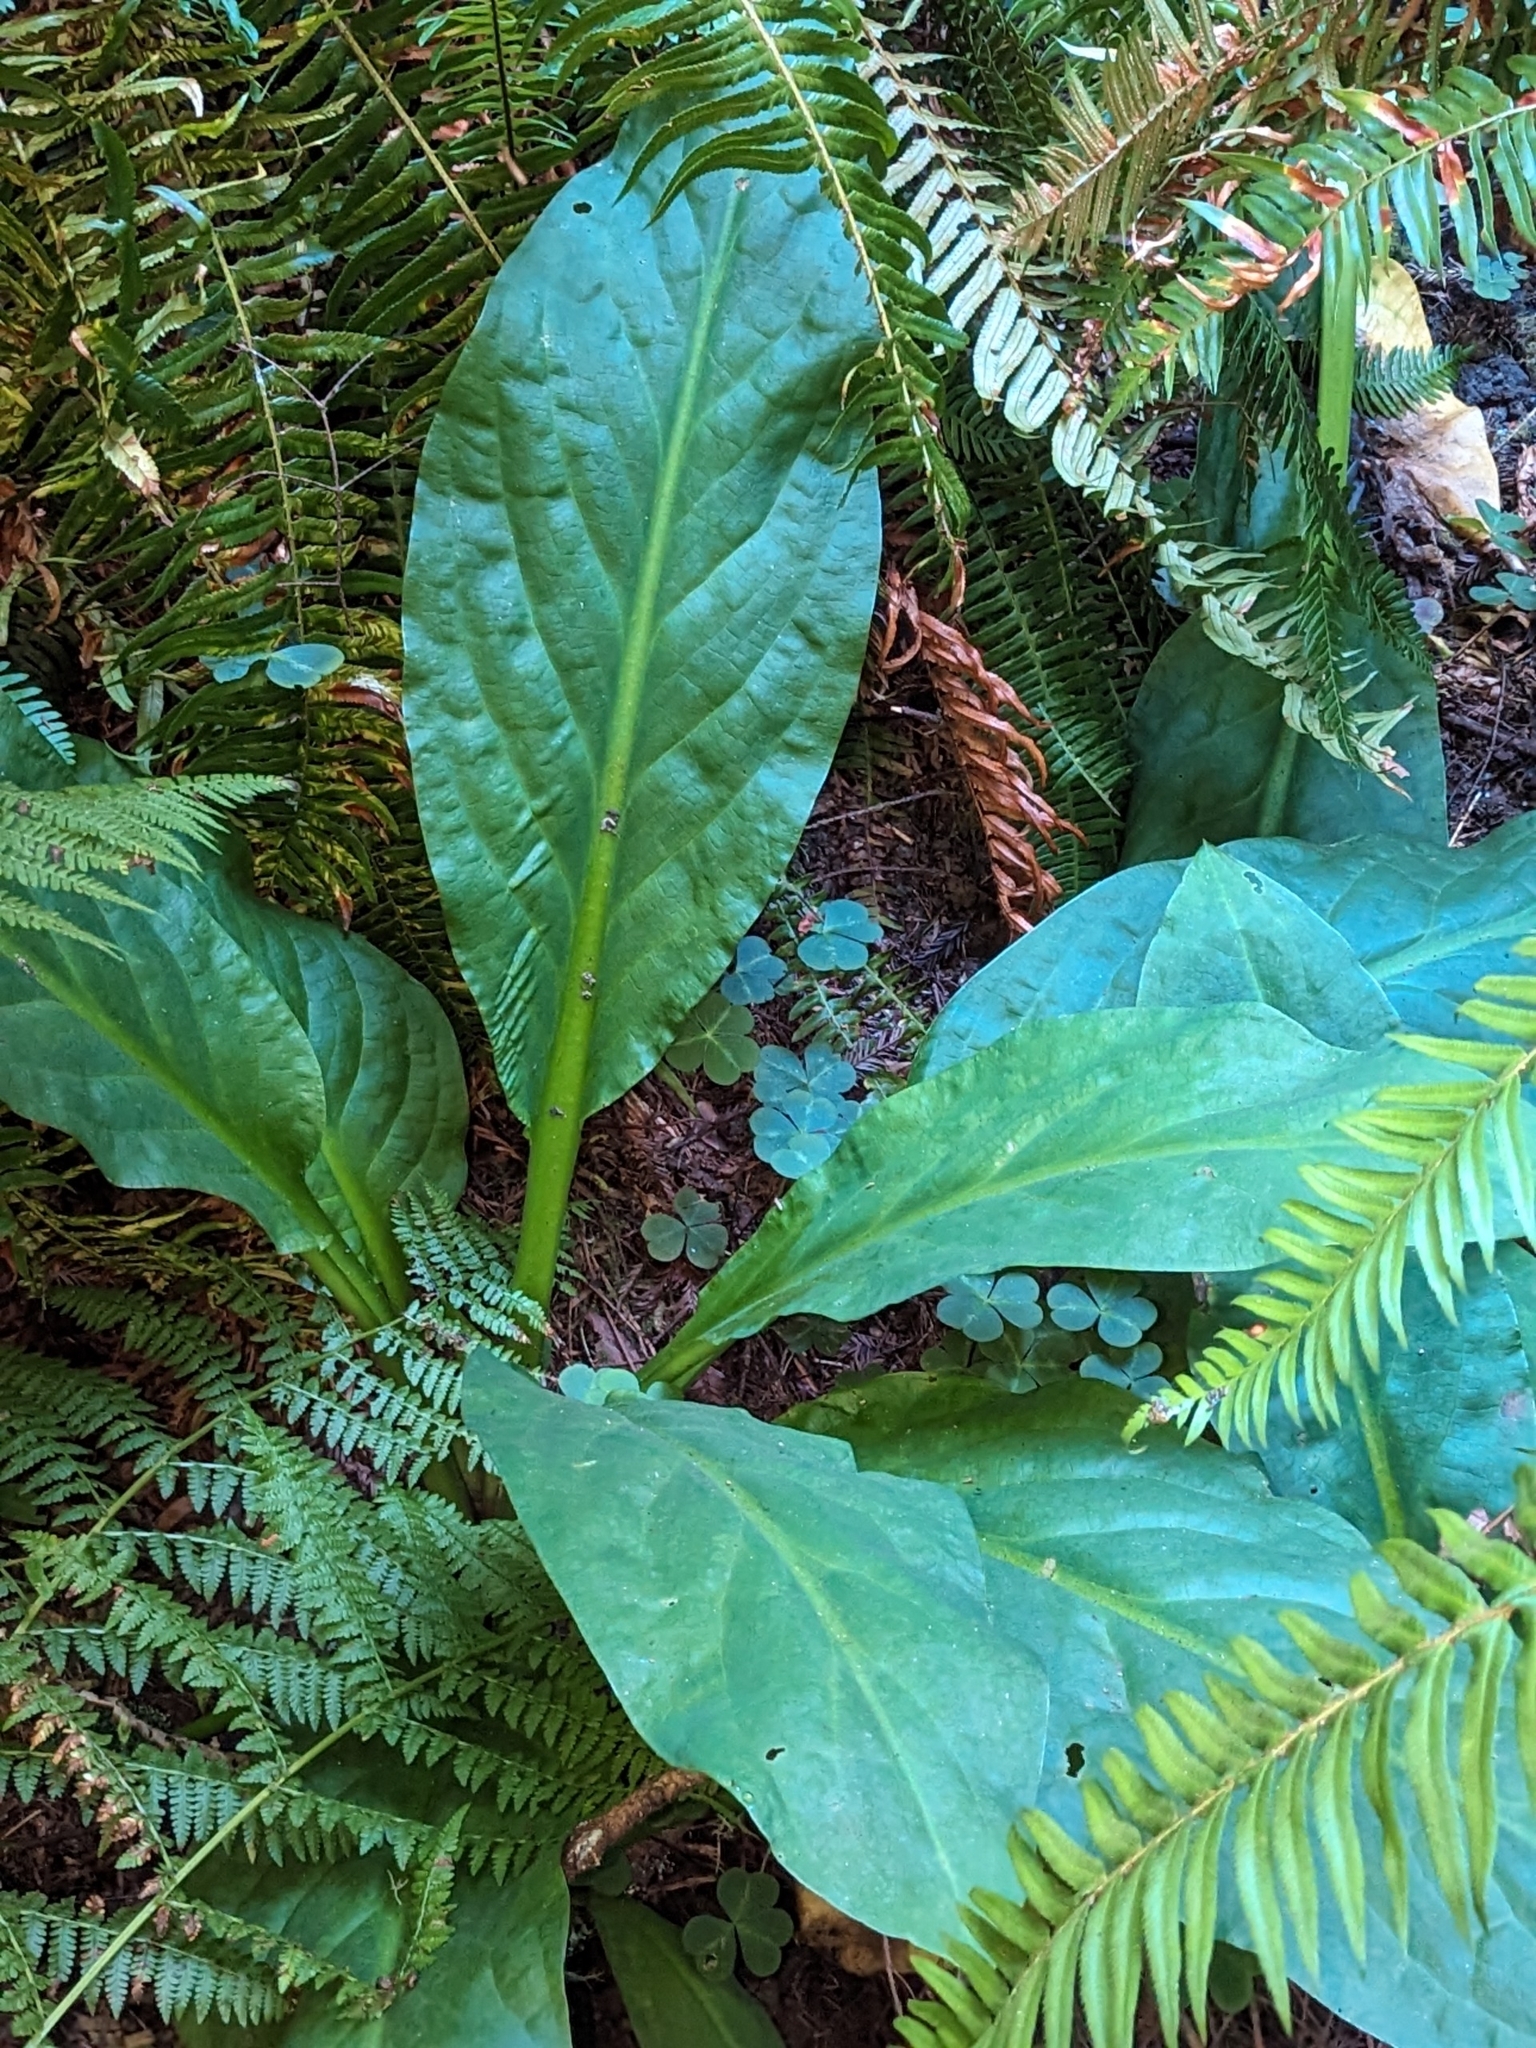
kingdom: Plantae
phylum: Tracheophyta
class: Liliopsida
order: Alismatales
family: Araceae
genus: Lysichiton
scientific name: Lysichiton americanus
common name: American skunk cabbage
